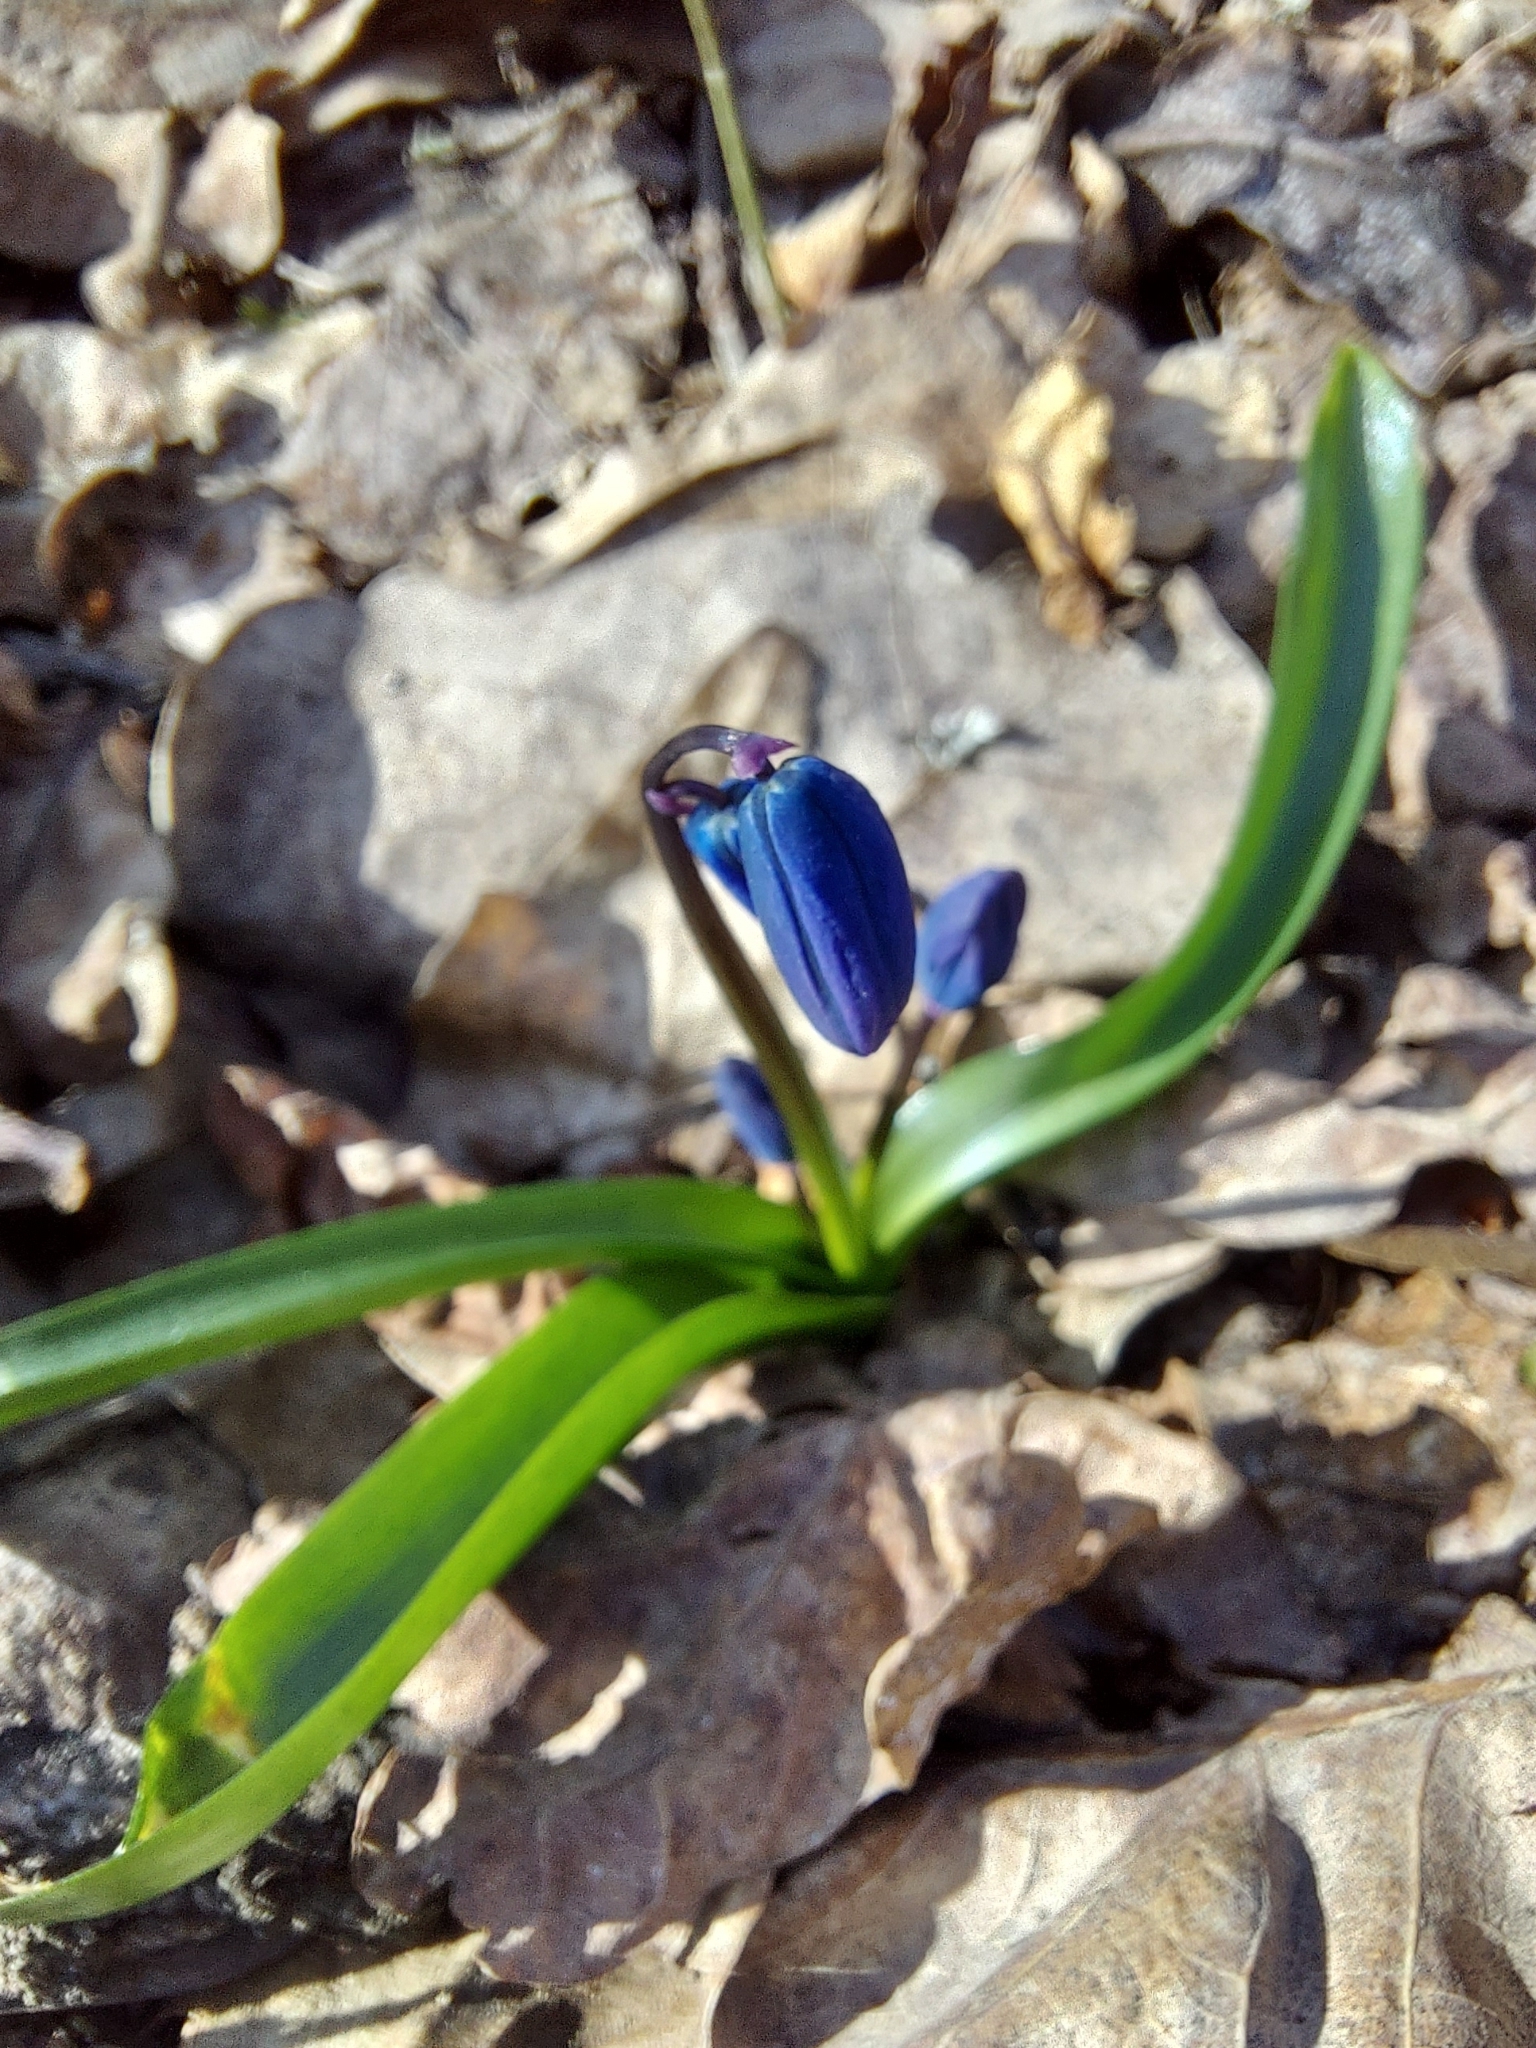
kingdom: Plantae
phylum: Tracheophyta
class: Liliopsida
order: Asparagales
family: Asparagaceae
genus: Scilla
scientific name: Scilla siberica
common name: Siberian squill
